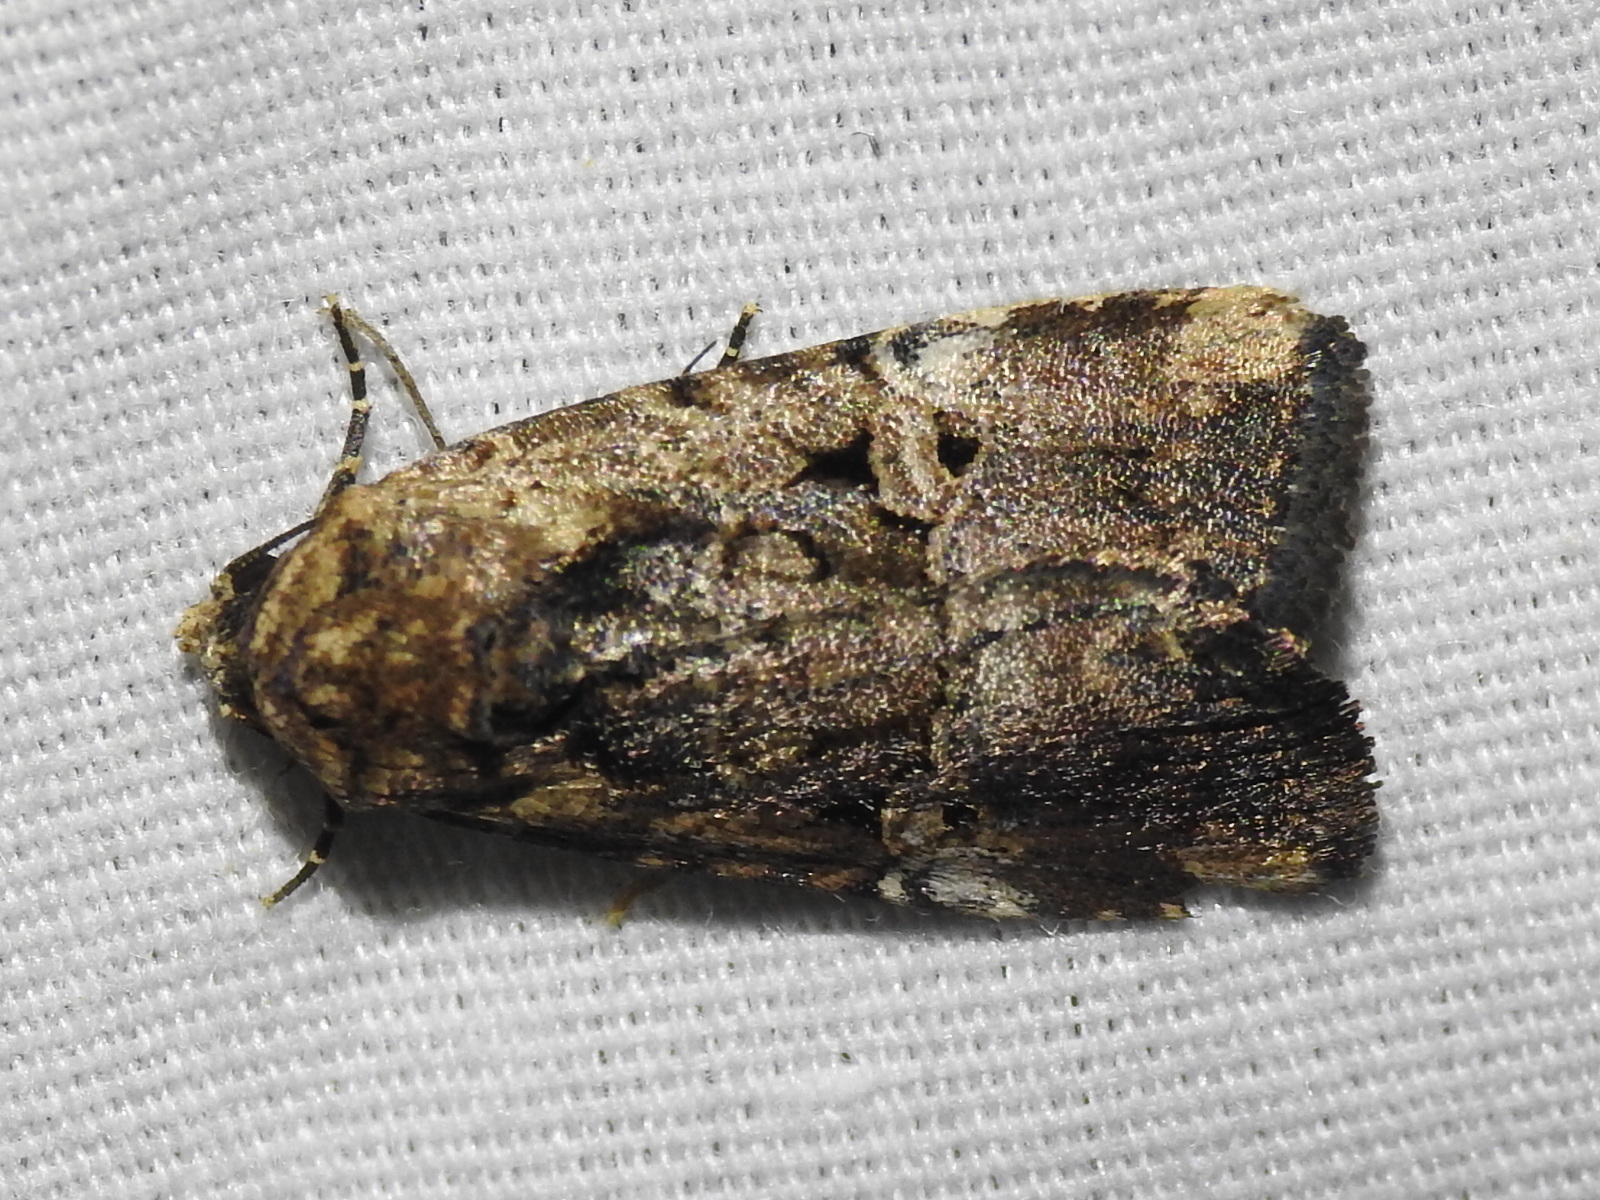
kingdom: Animalia
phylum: Arthropoda
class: Insecta
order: Lepidoptera
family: Noctuidae
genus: Elaphria
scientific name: Elaphria chalcedonia
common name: Chalcedony midget
